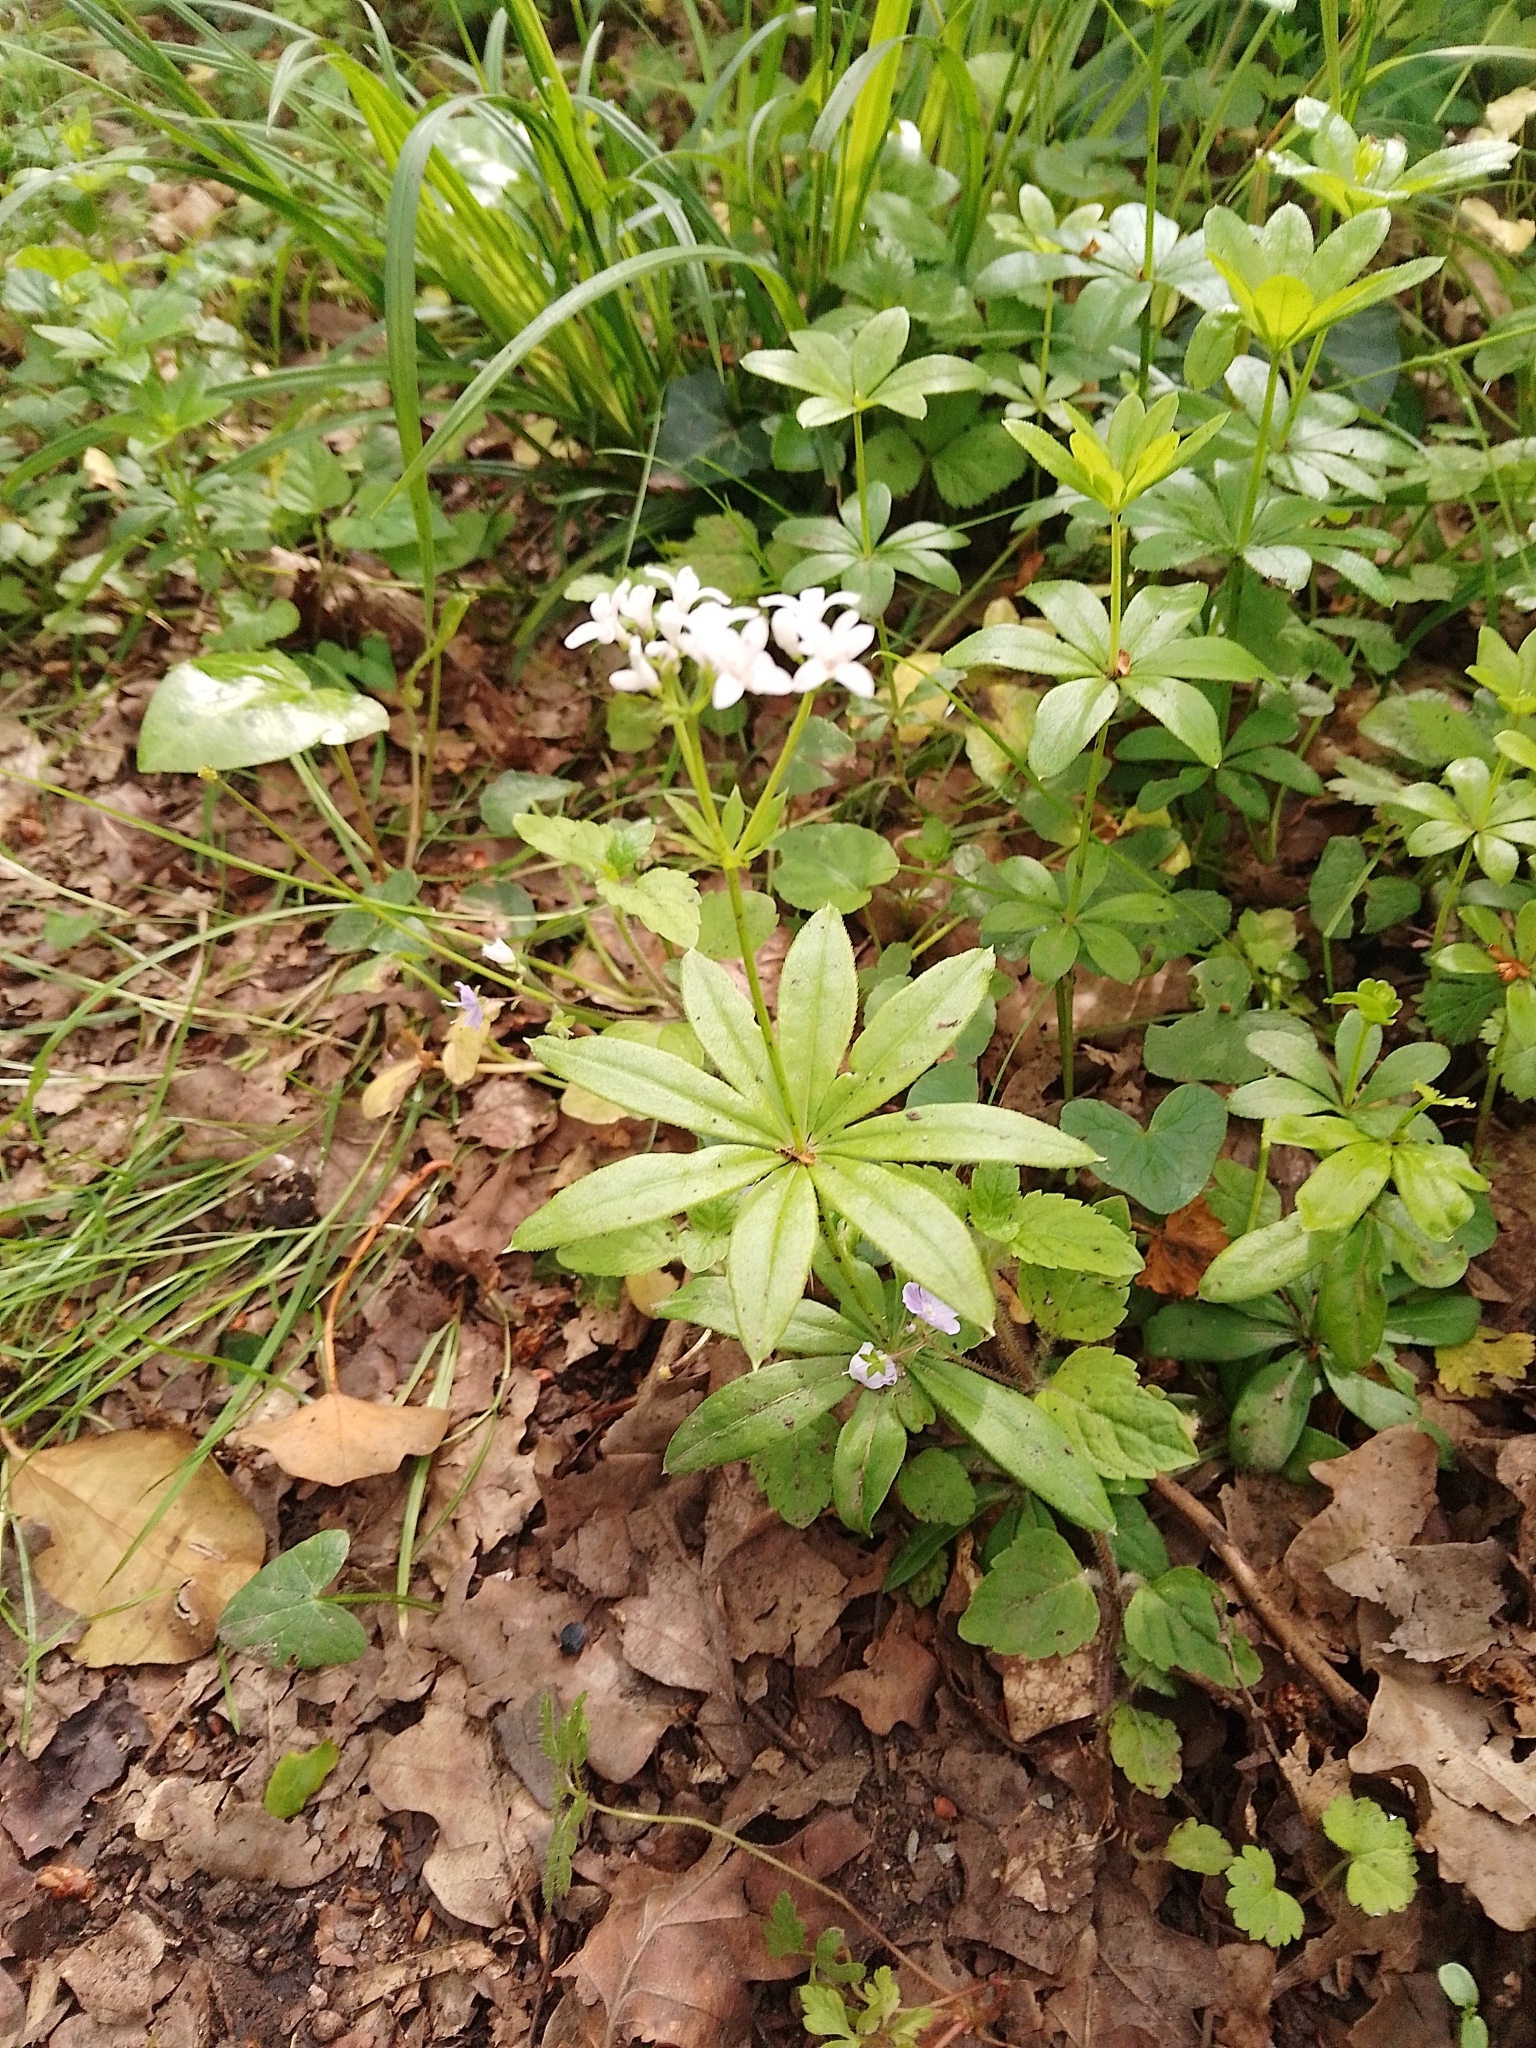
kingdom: Plantae
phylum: Tracheophyta
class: Magnoliopsida
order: Gentianales
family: Rubiaceae
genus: Galium
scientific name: Galium odoratum
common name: Sweet woodruff
